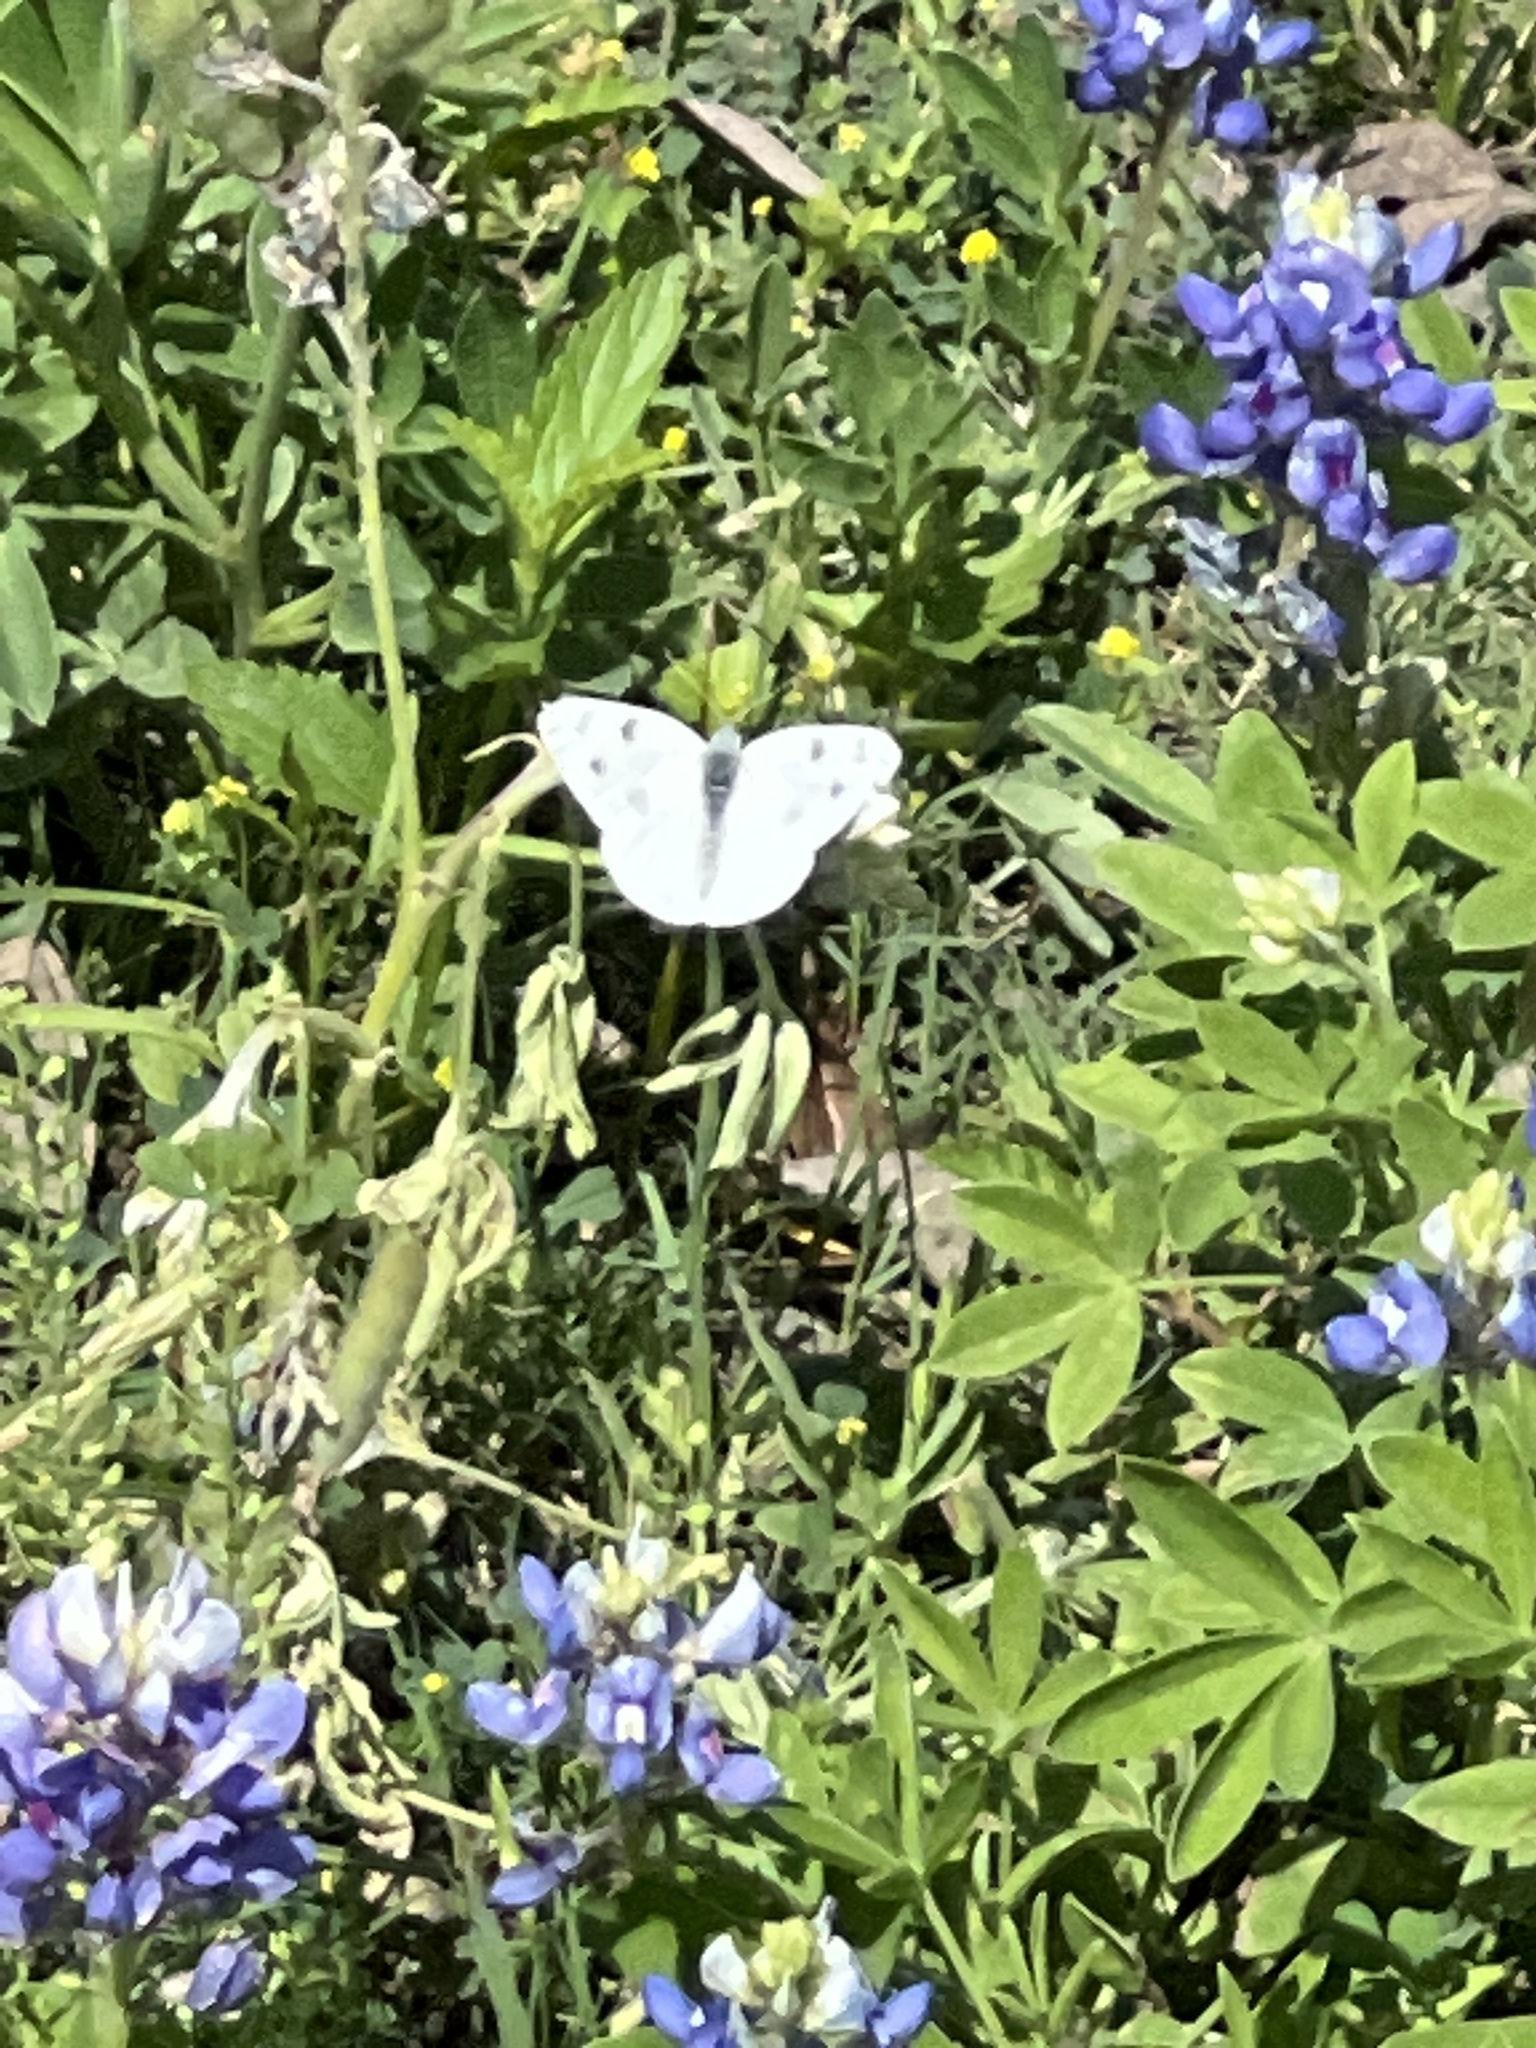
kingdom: Animalia
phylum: Arthropoda
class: Insecta
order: Lepidoptera
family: Pieridae
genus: Pontia
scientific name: Pontia protodice
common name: Checkered white
